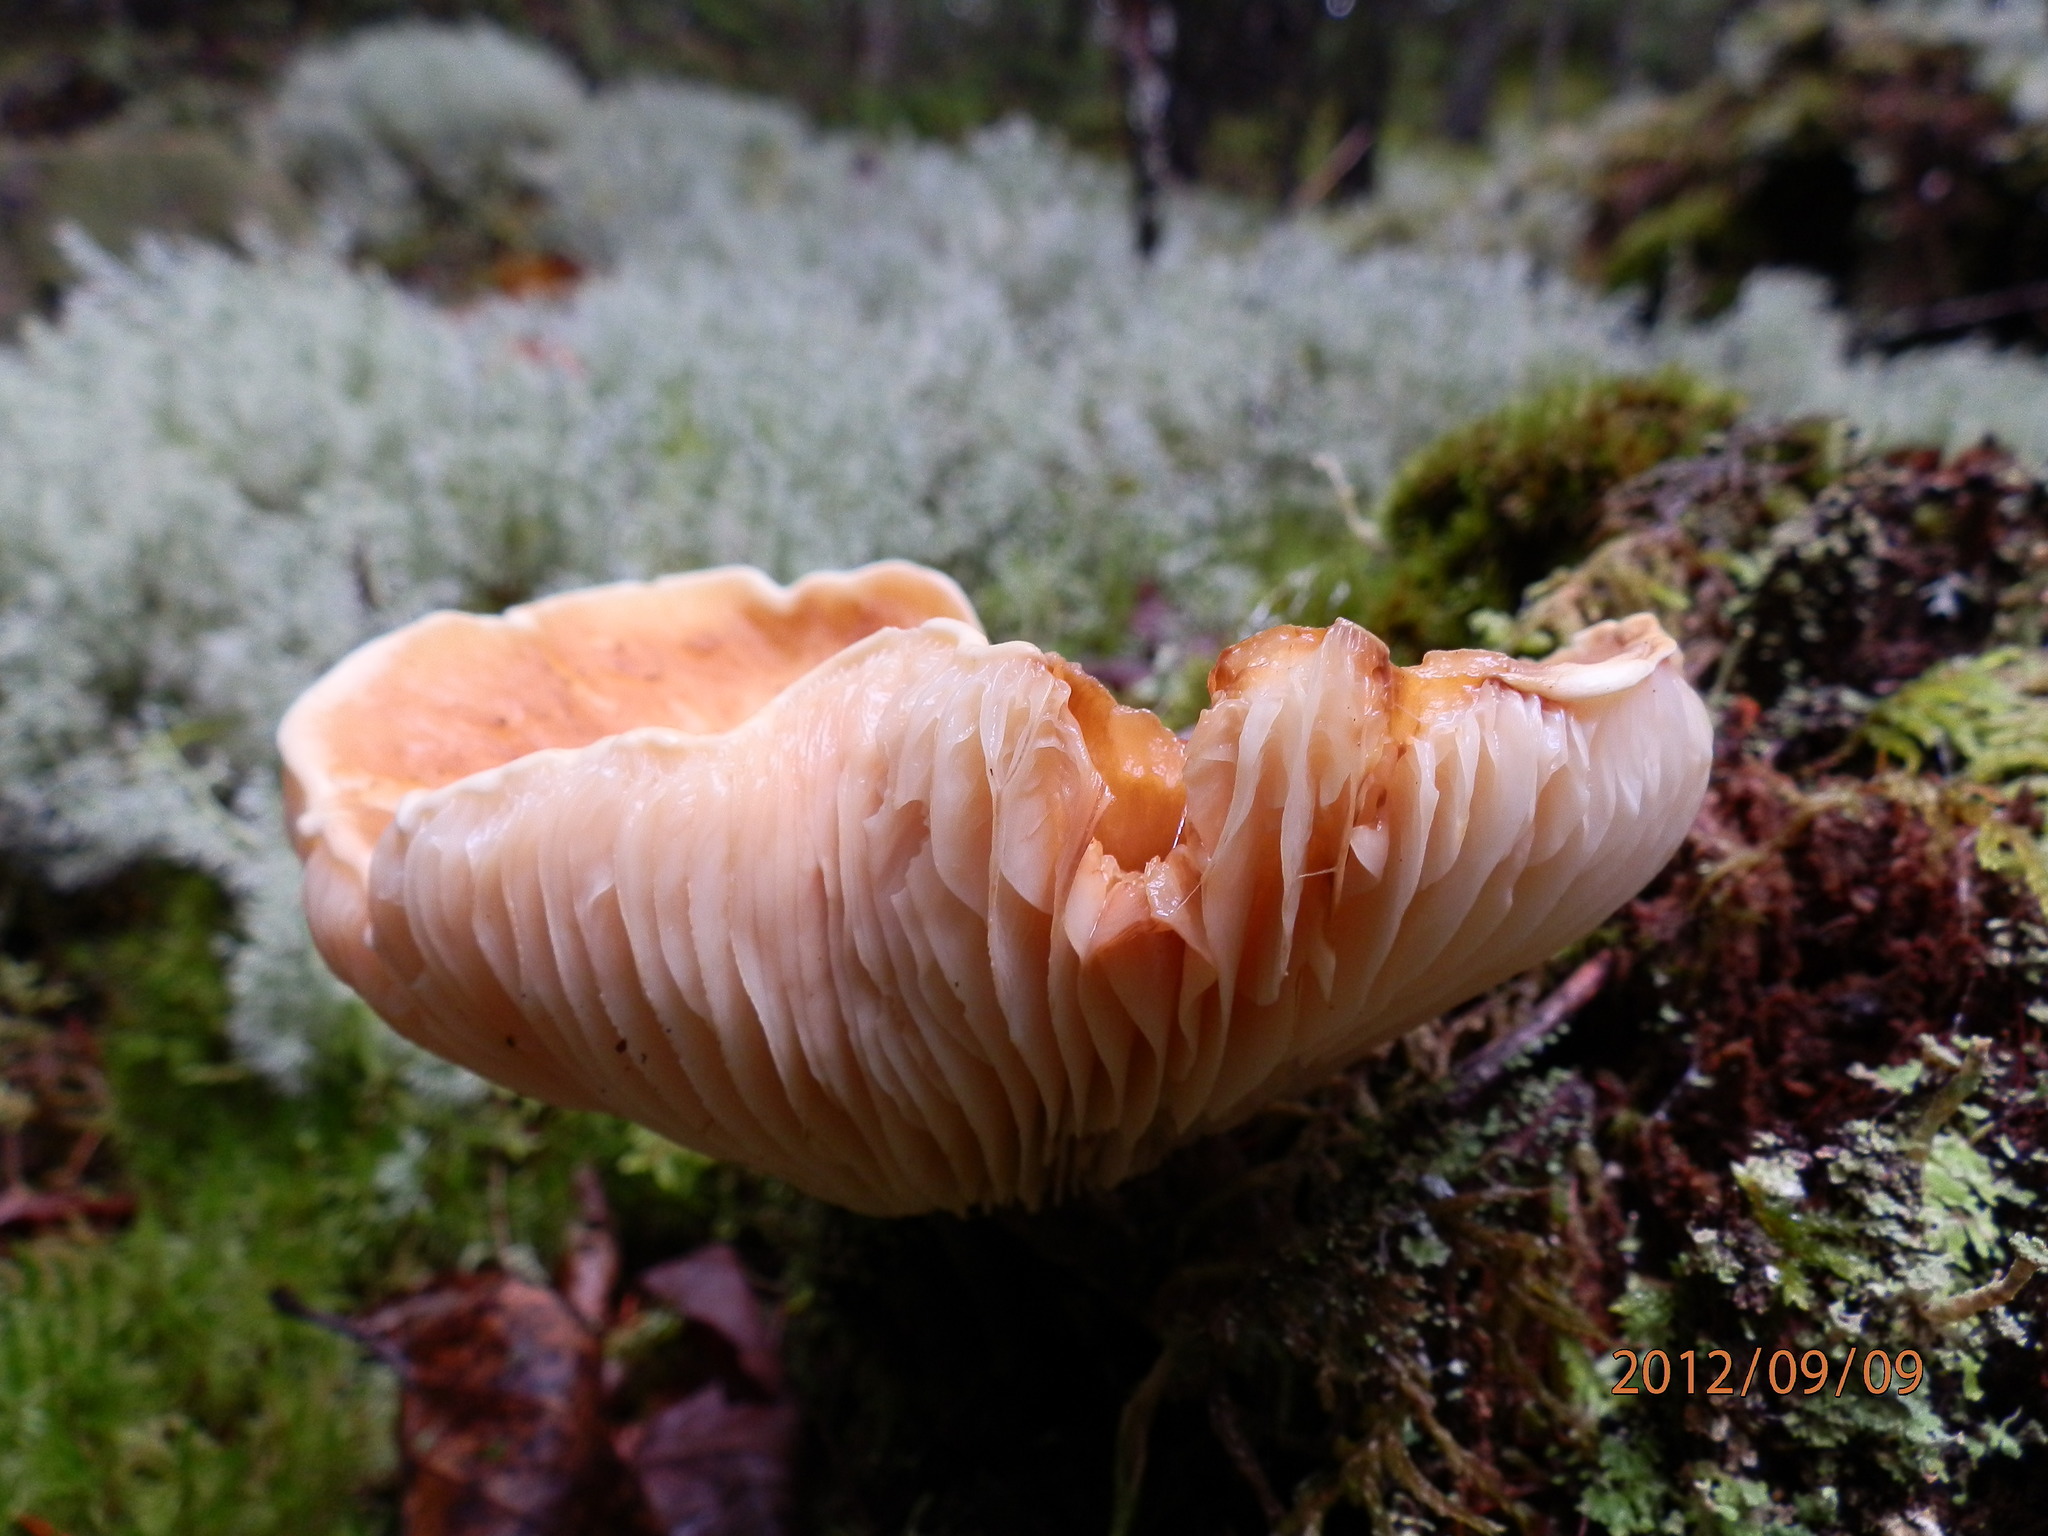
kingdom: Fungi
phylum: Basidiomycota
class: Agaricomycetes
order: Russulales
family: Russulaceae
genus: Lactarius
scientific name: Lactarius gerardii
